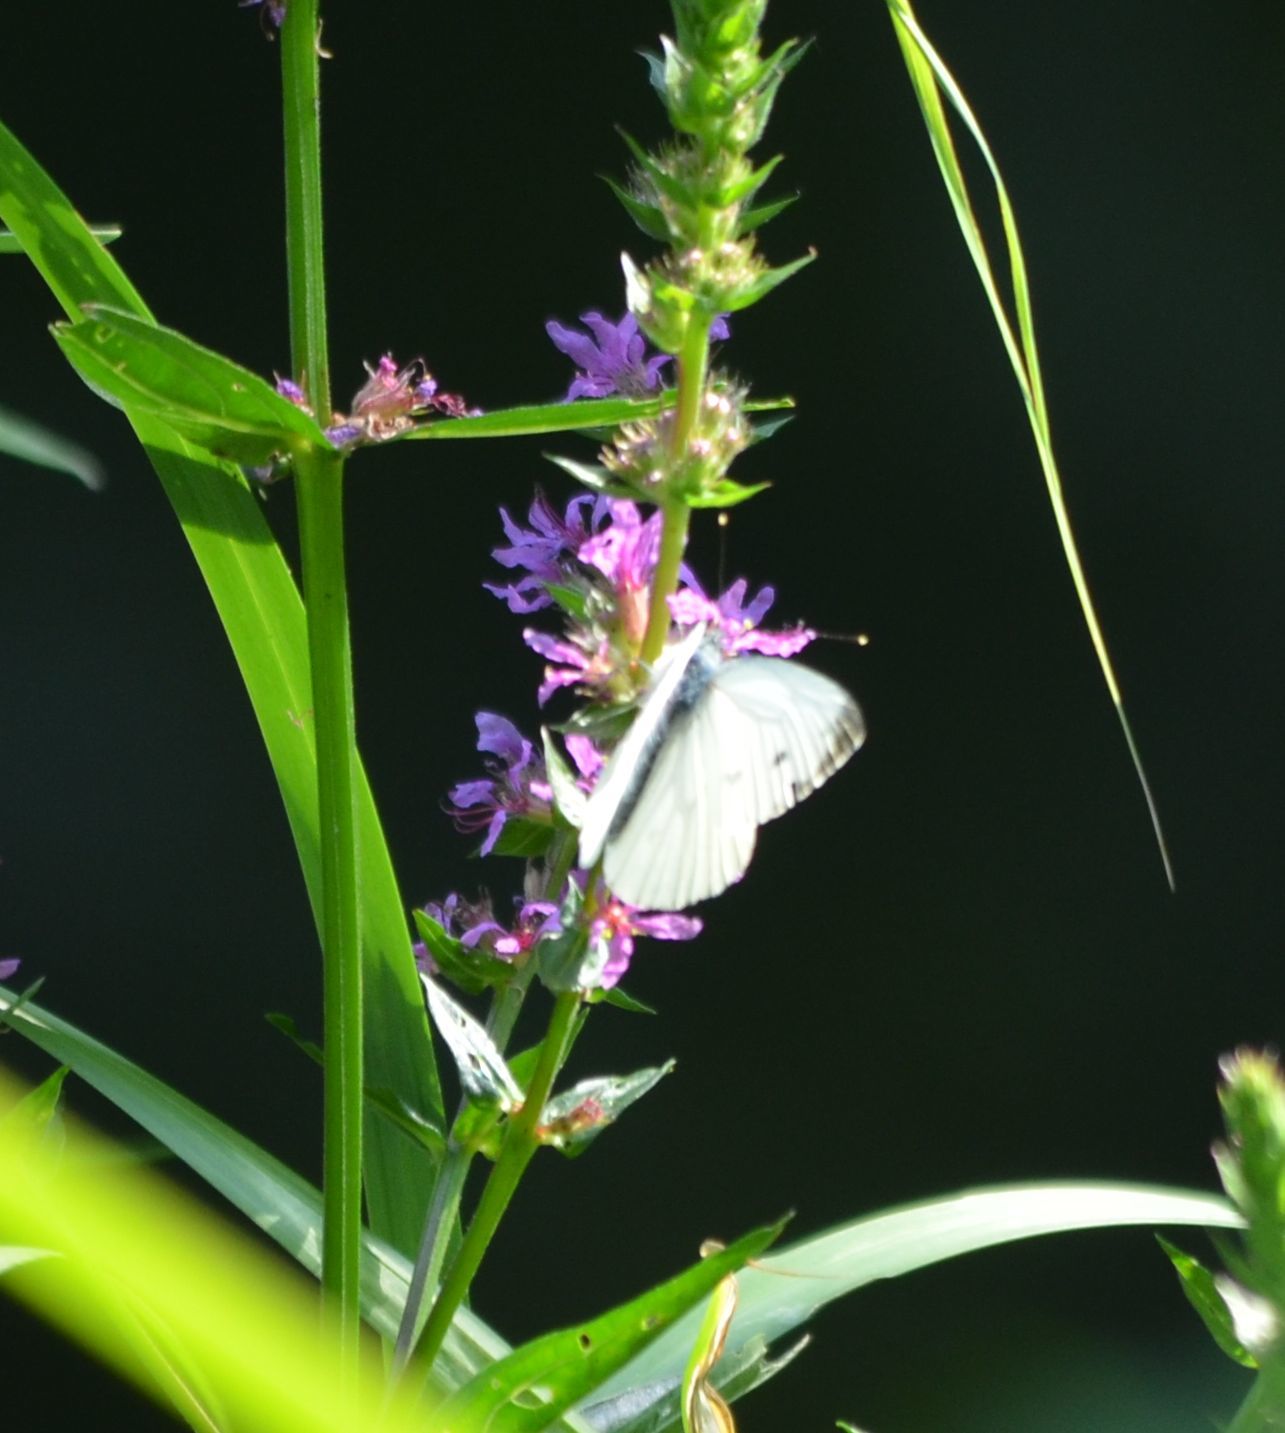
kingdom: Animalia
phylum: Arthropoda
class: Insecta
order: Lepidoptera
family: Pieridae
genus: Pieris
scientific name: Pieris napi
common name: Green-veined white
